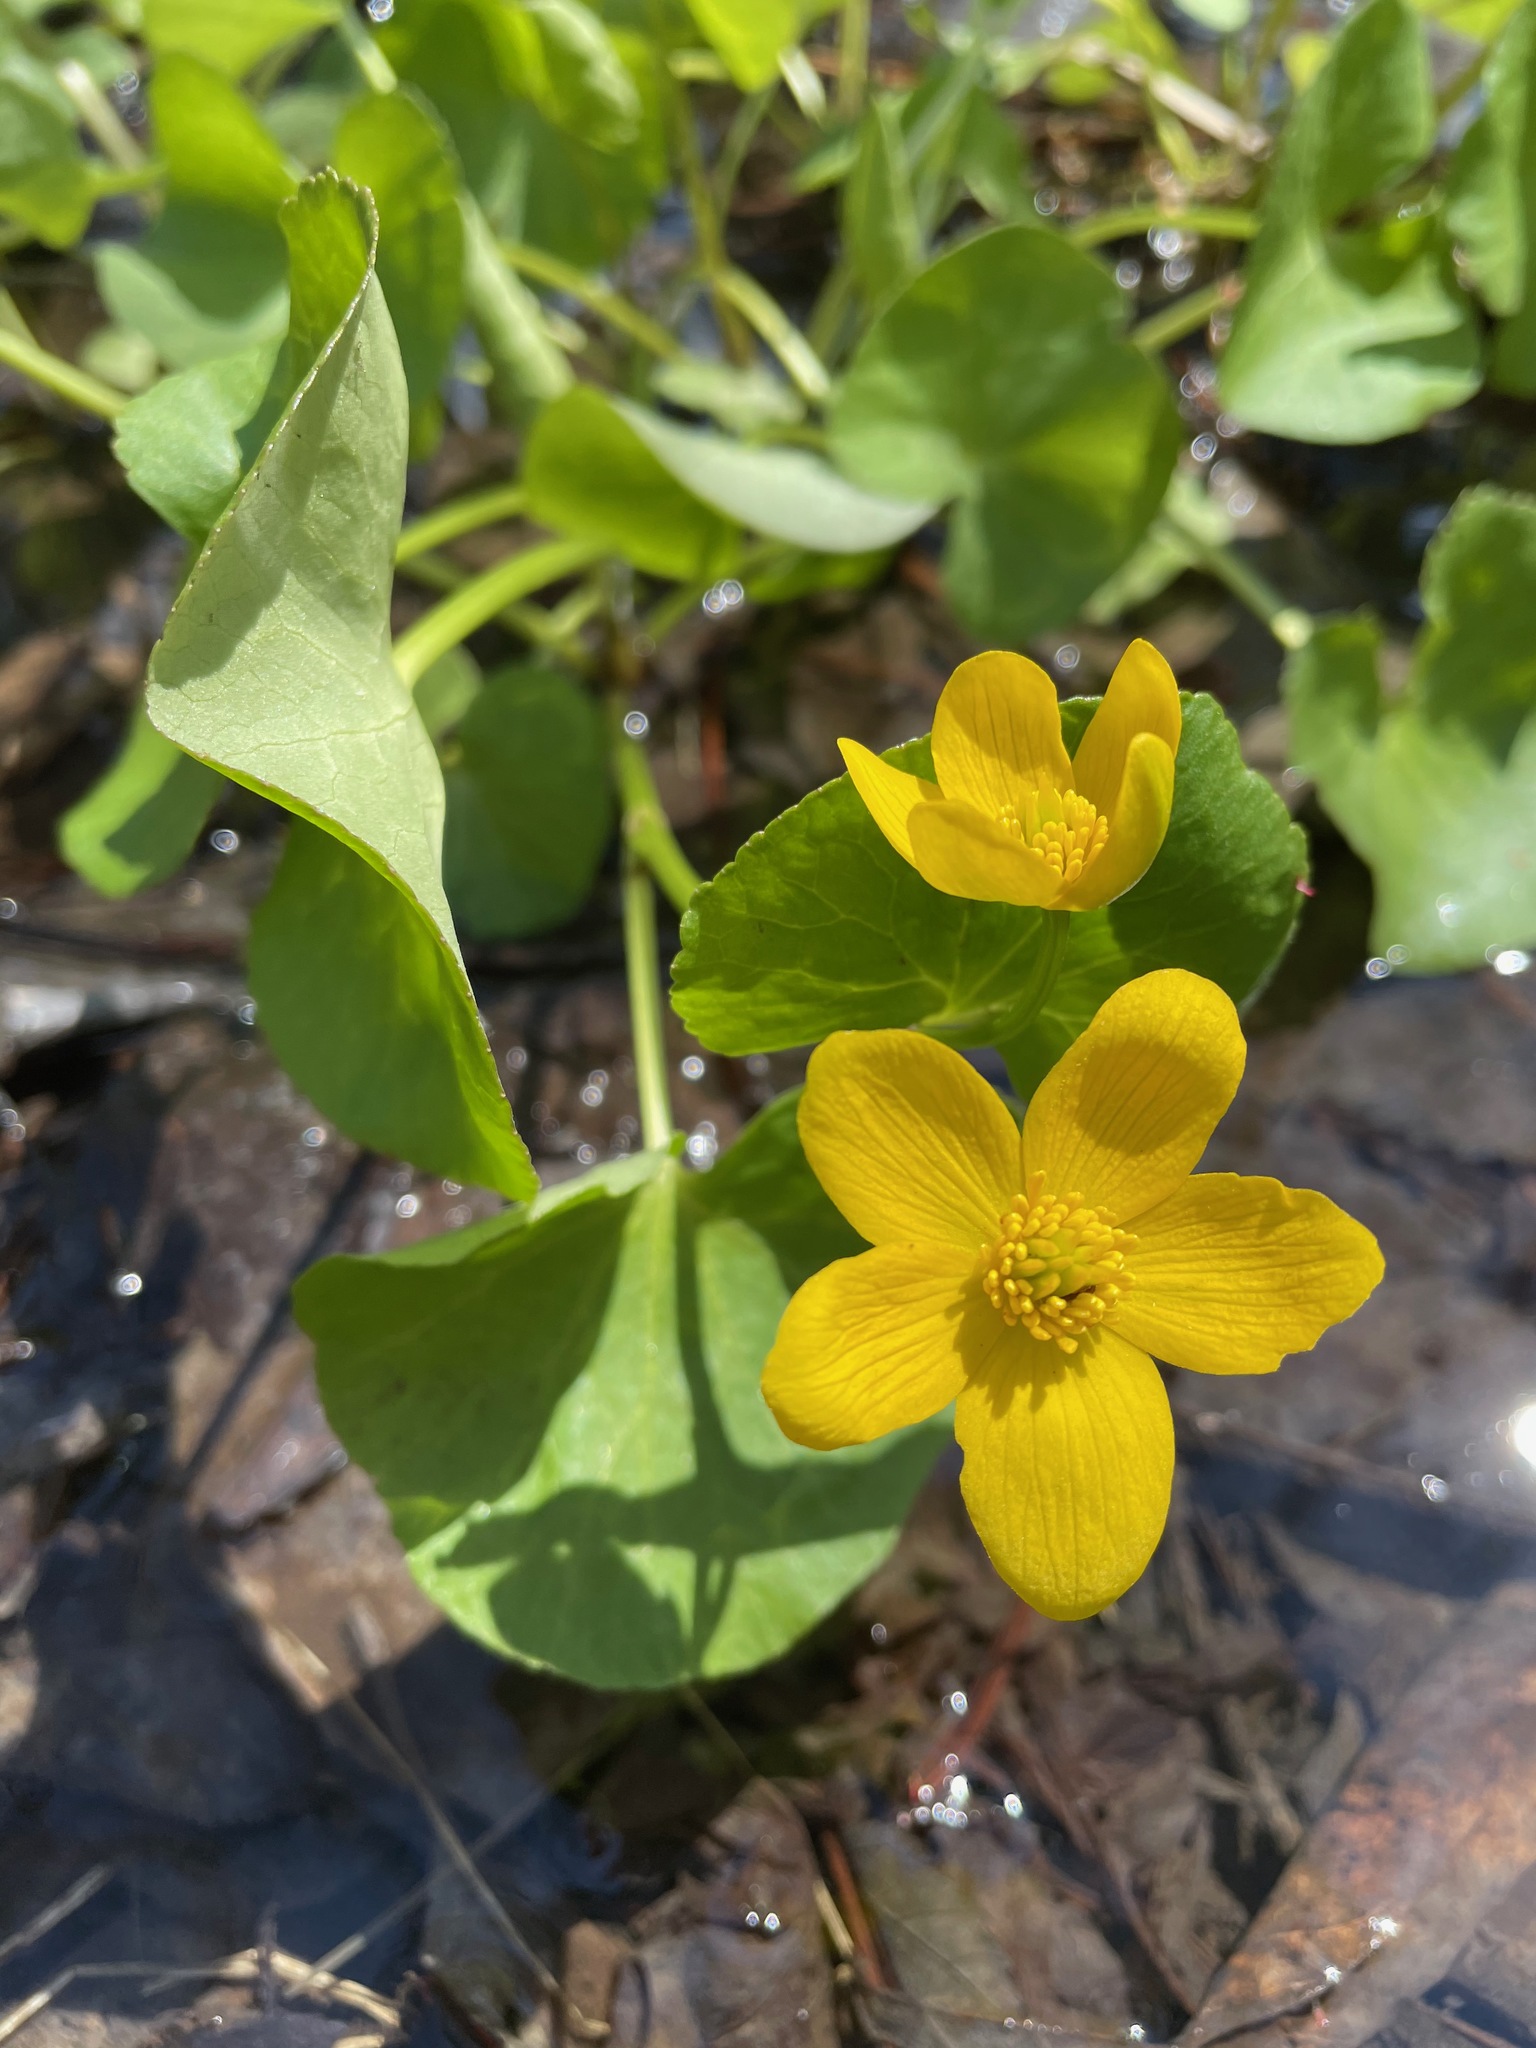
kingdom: Plantae
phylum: Tracheophyta
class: Magnoliopsida
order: Ranunculales
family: Ranunculaceae
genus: Caltha
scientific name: Caltha palustris
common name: Marsh marigold
